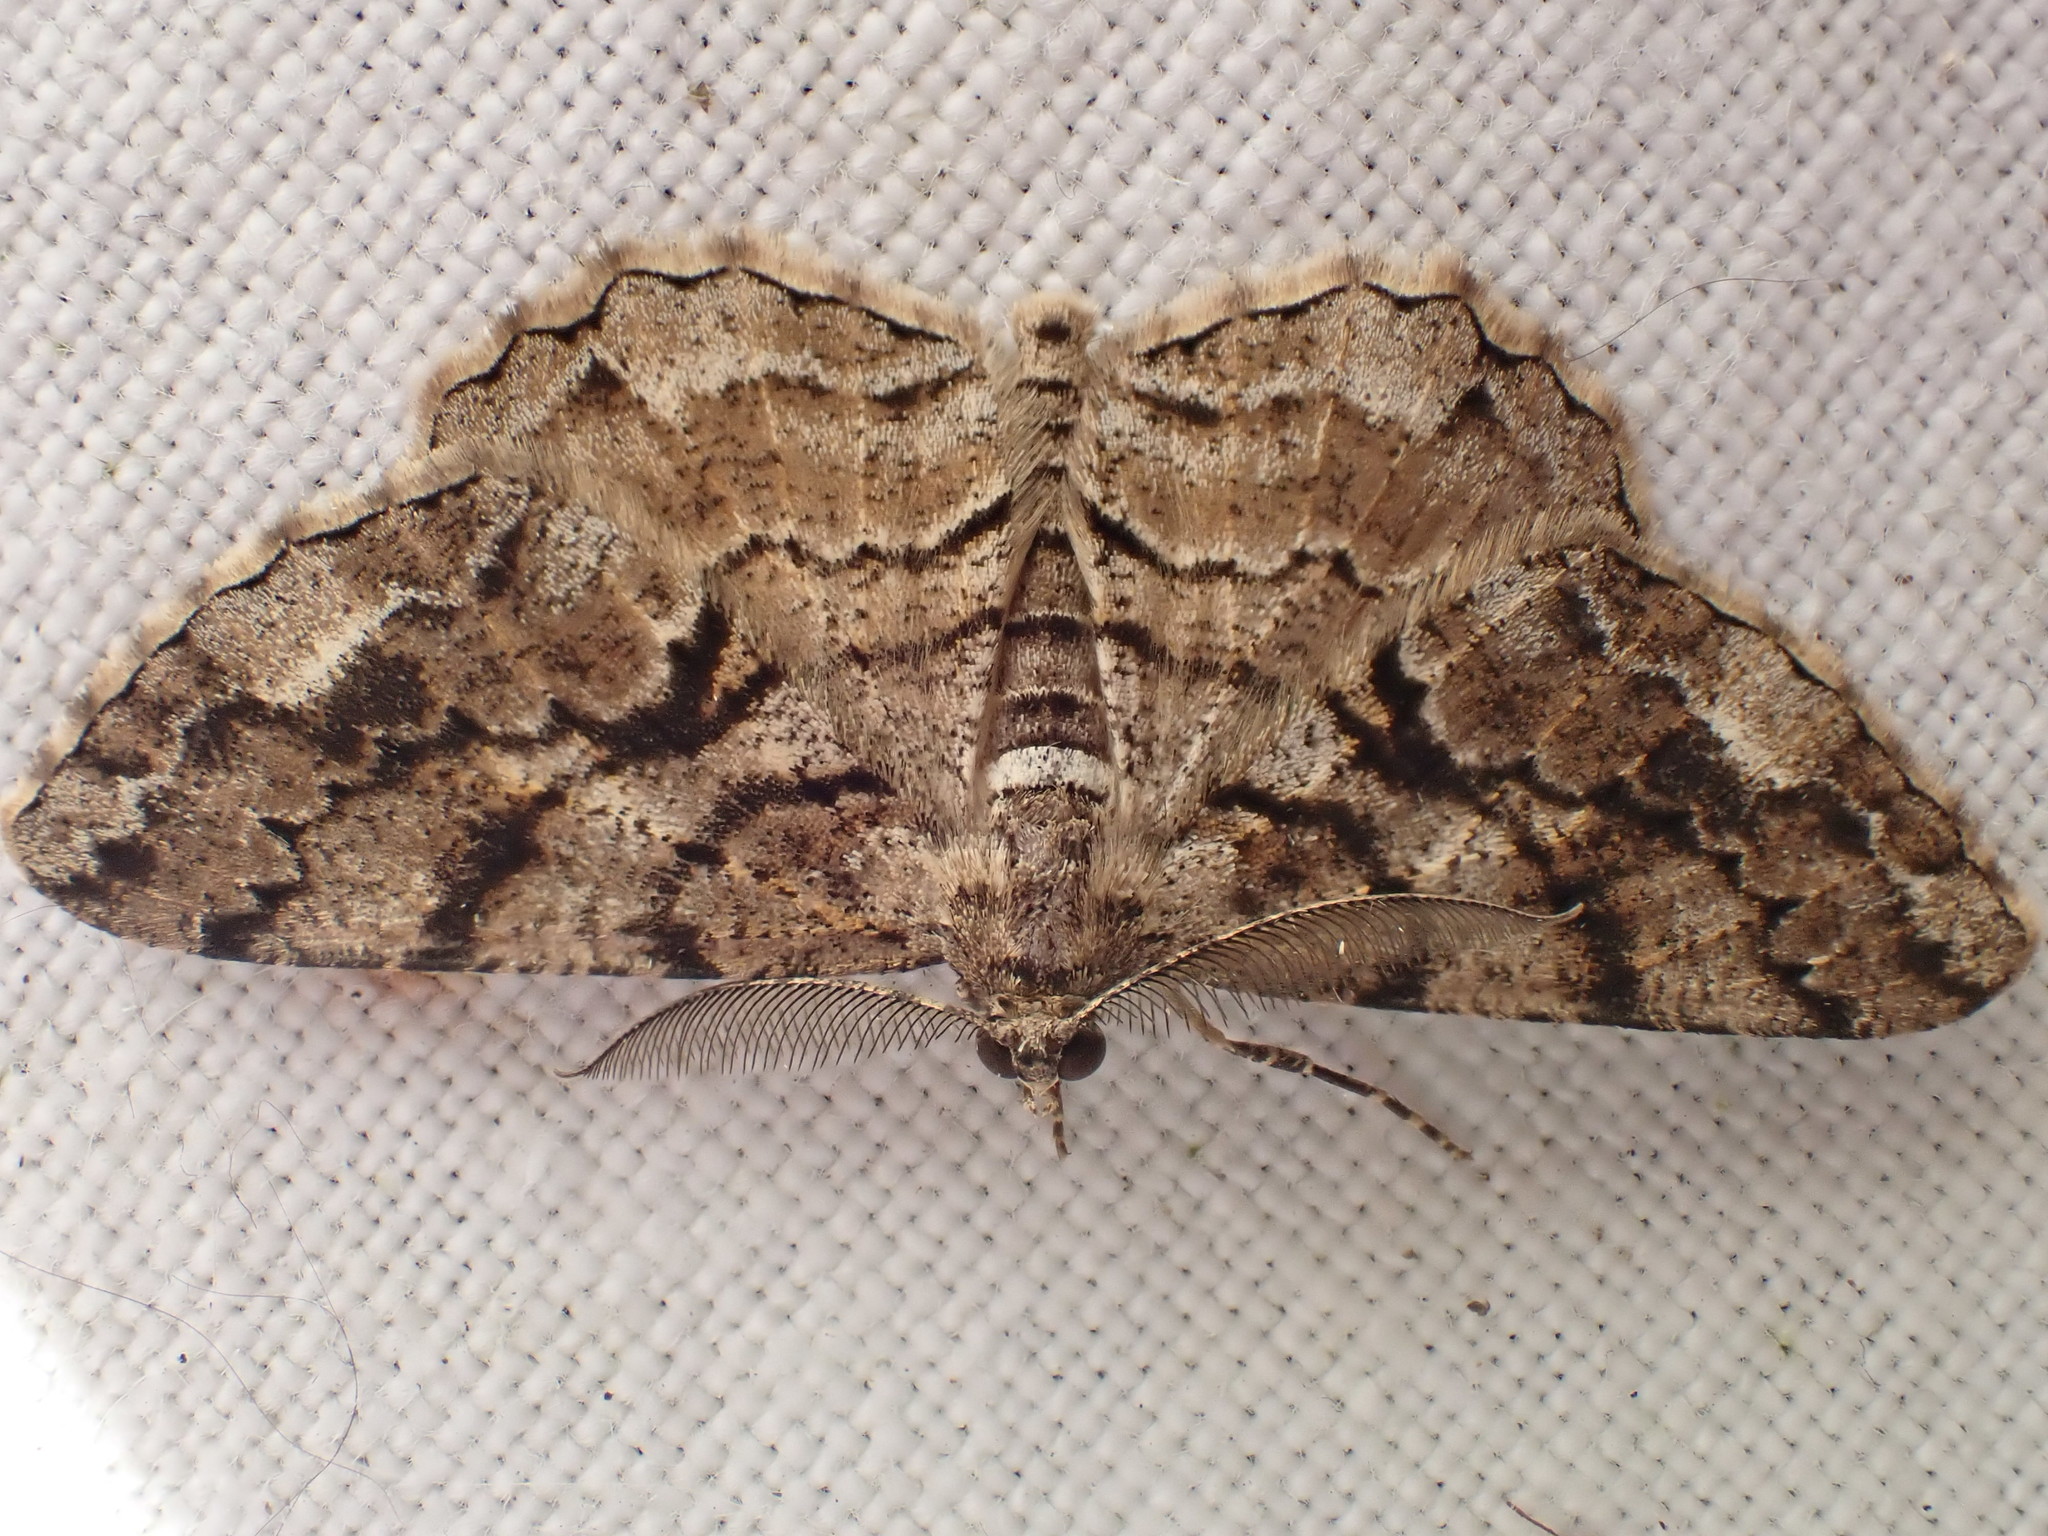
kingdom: Animalia
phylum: Arthropoda
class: Insecta
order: Lepidoptera
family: Geometridae
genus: Peribatodes
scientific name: Peribatodes secundaria
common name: Feathered beauty
